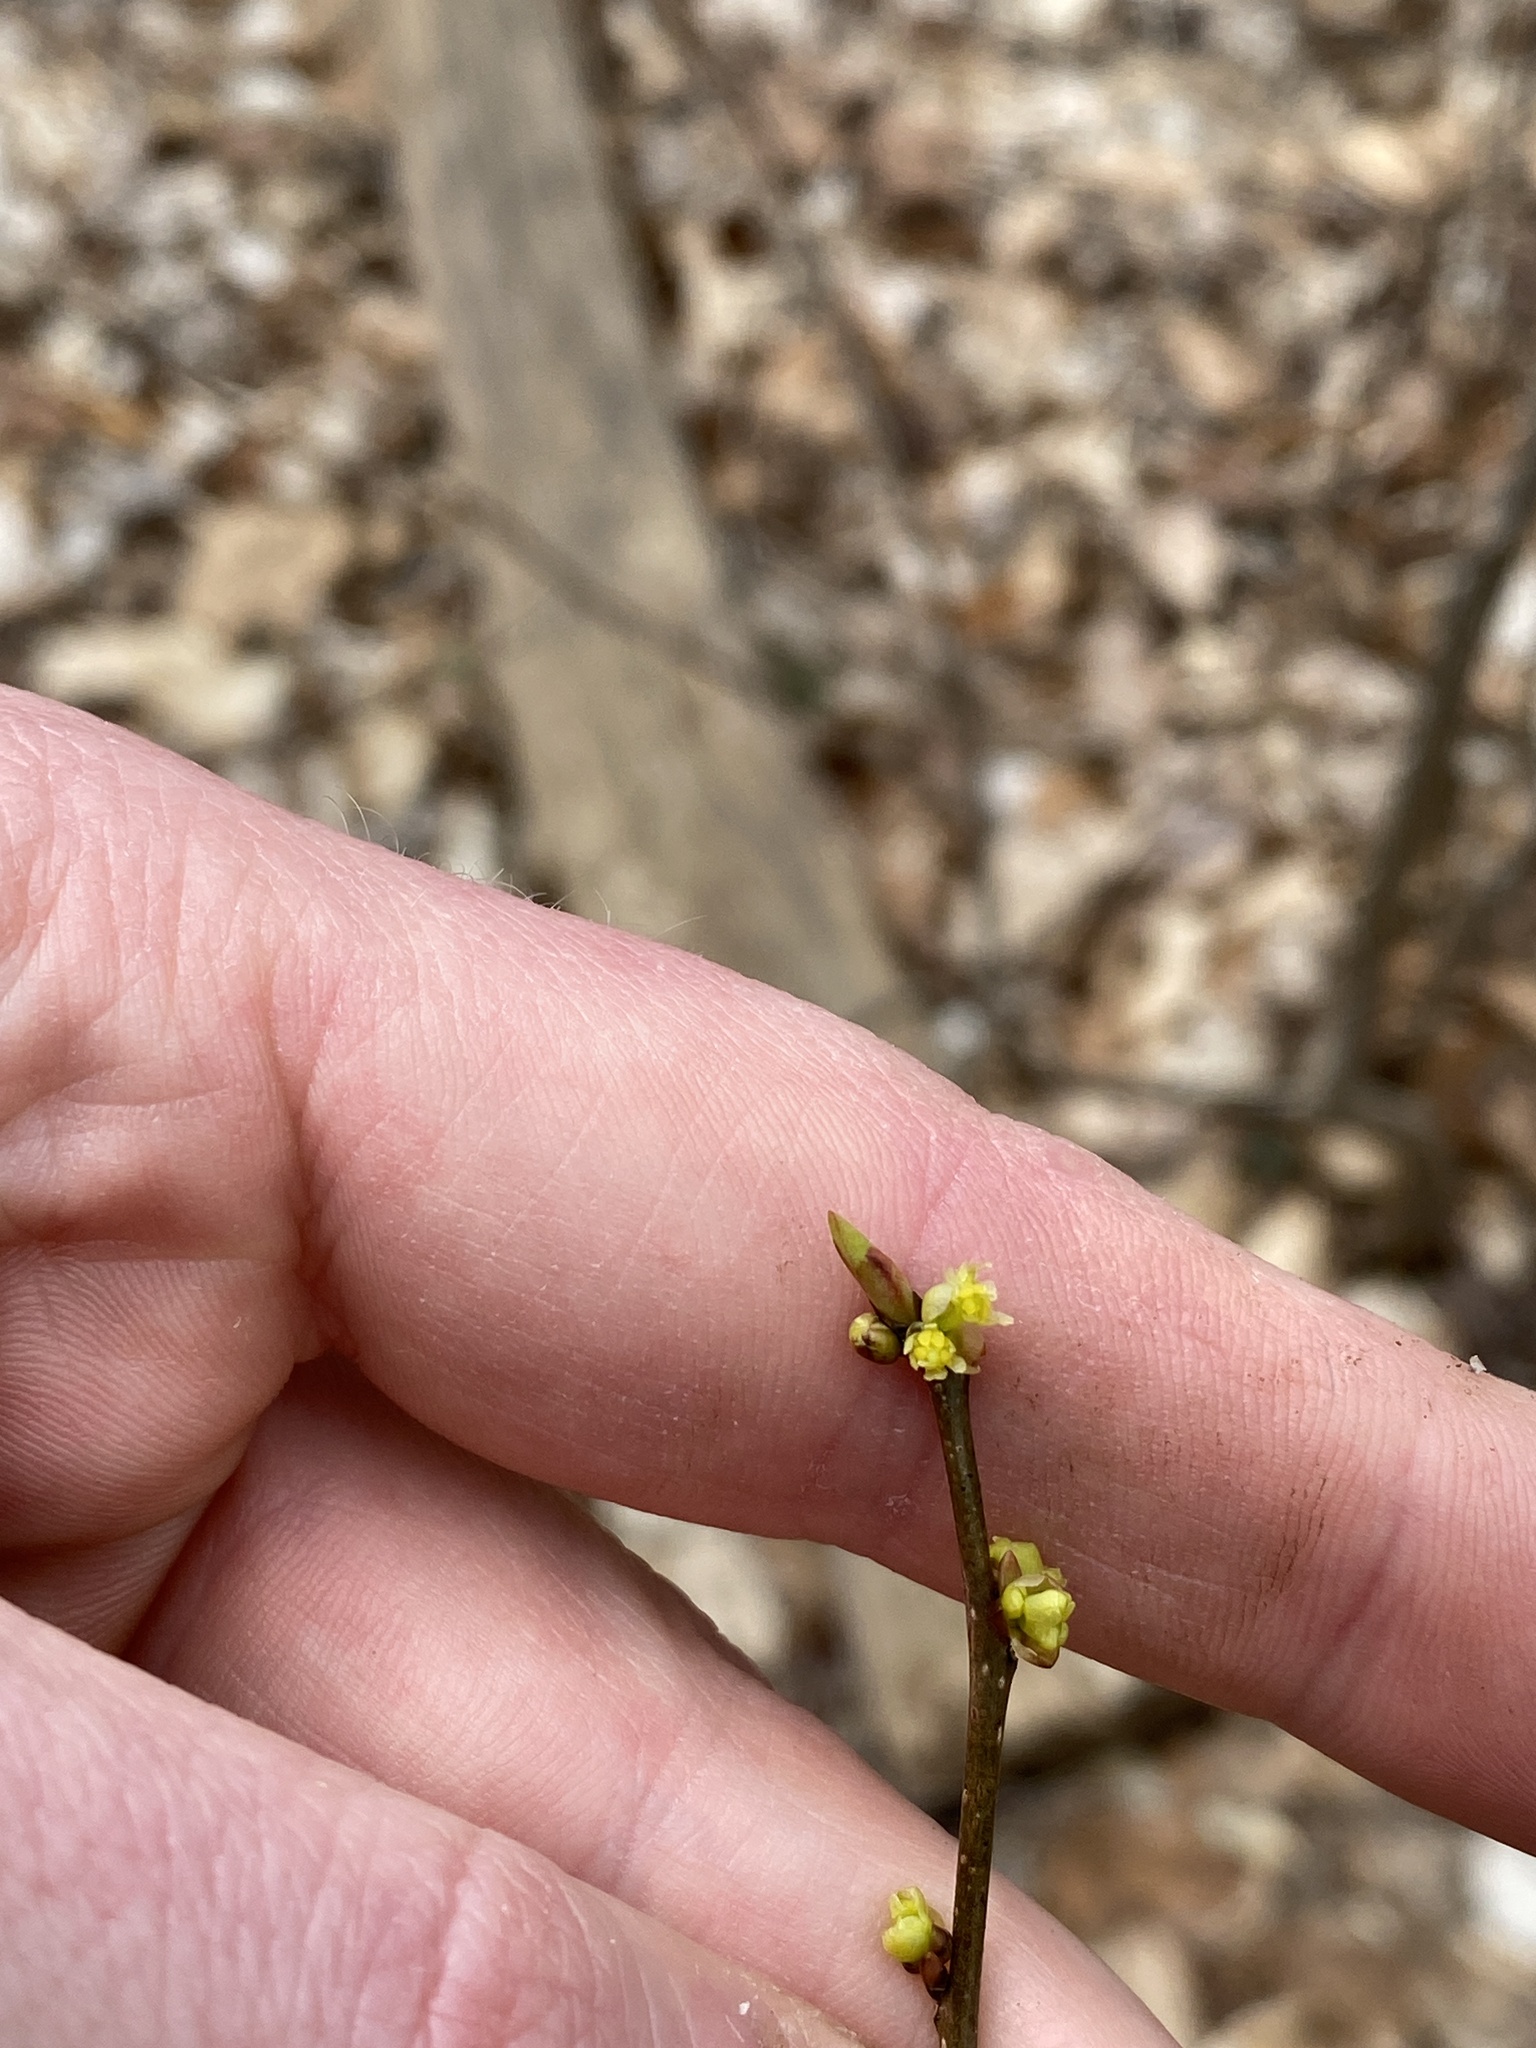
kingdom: Plantae
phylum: Tracheophyta
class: Magnoliopsida
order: Laurales
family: Lauraceae
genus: Lindera
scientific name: Lindera benzoin
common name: Spicebush
